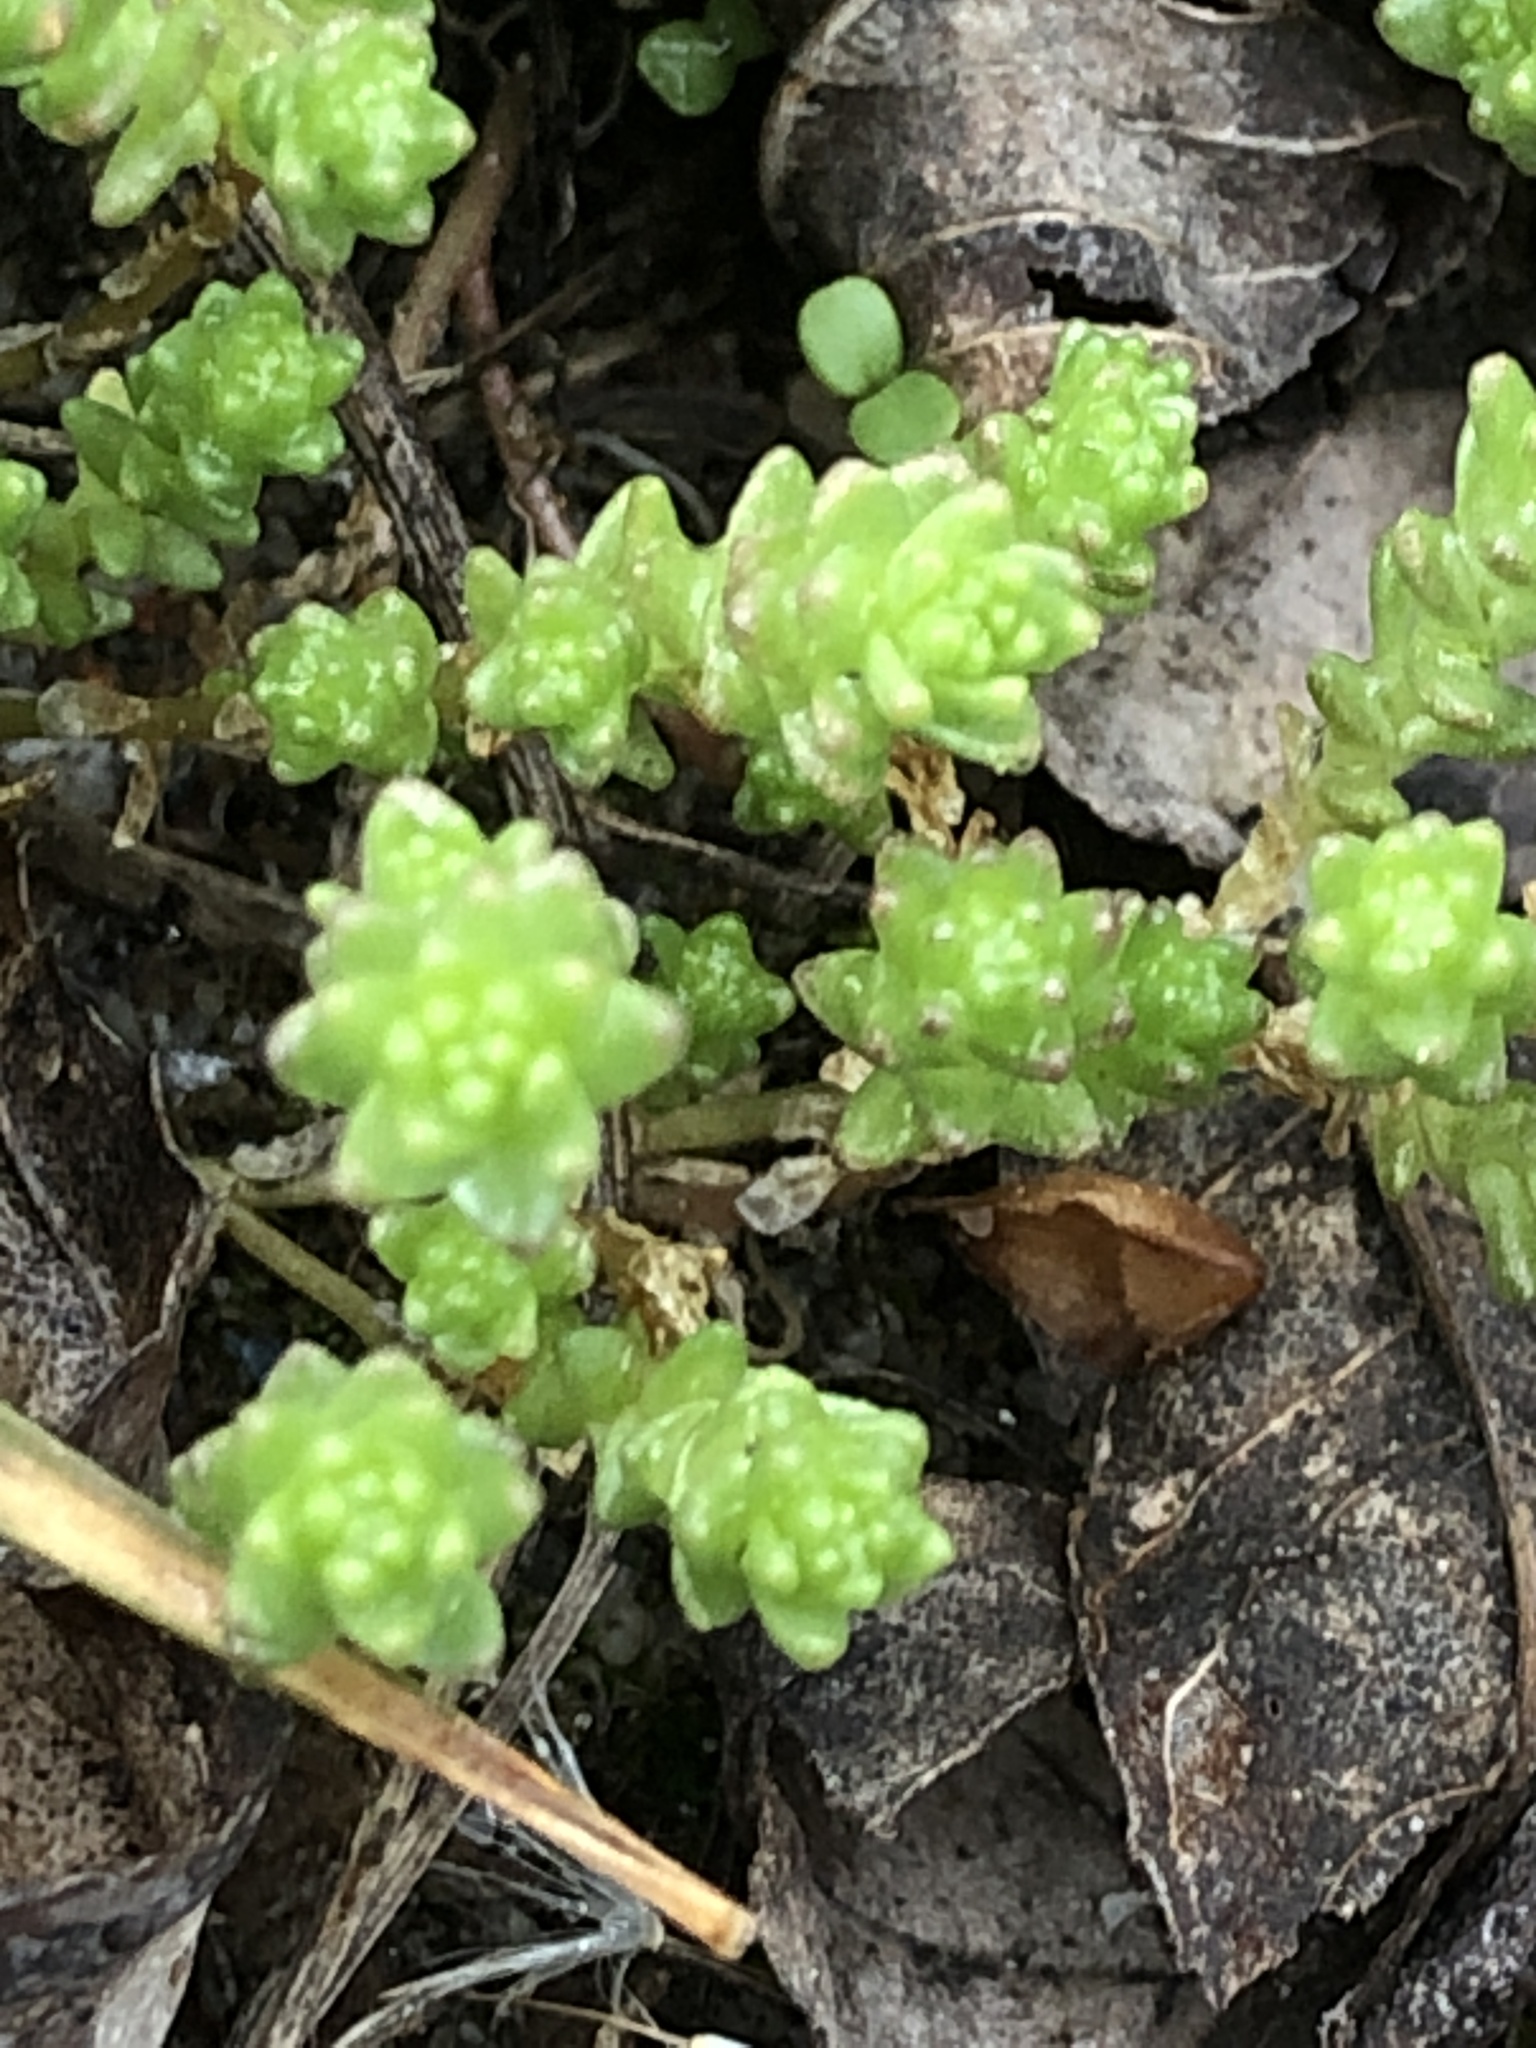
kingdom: Plantae
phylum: Tracheophyta
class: Magnoliopsida
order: Saxifragales
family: Crassulaceae
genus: Sedum
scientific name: Sedum acre
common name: Biting stonecrop
